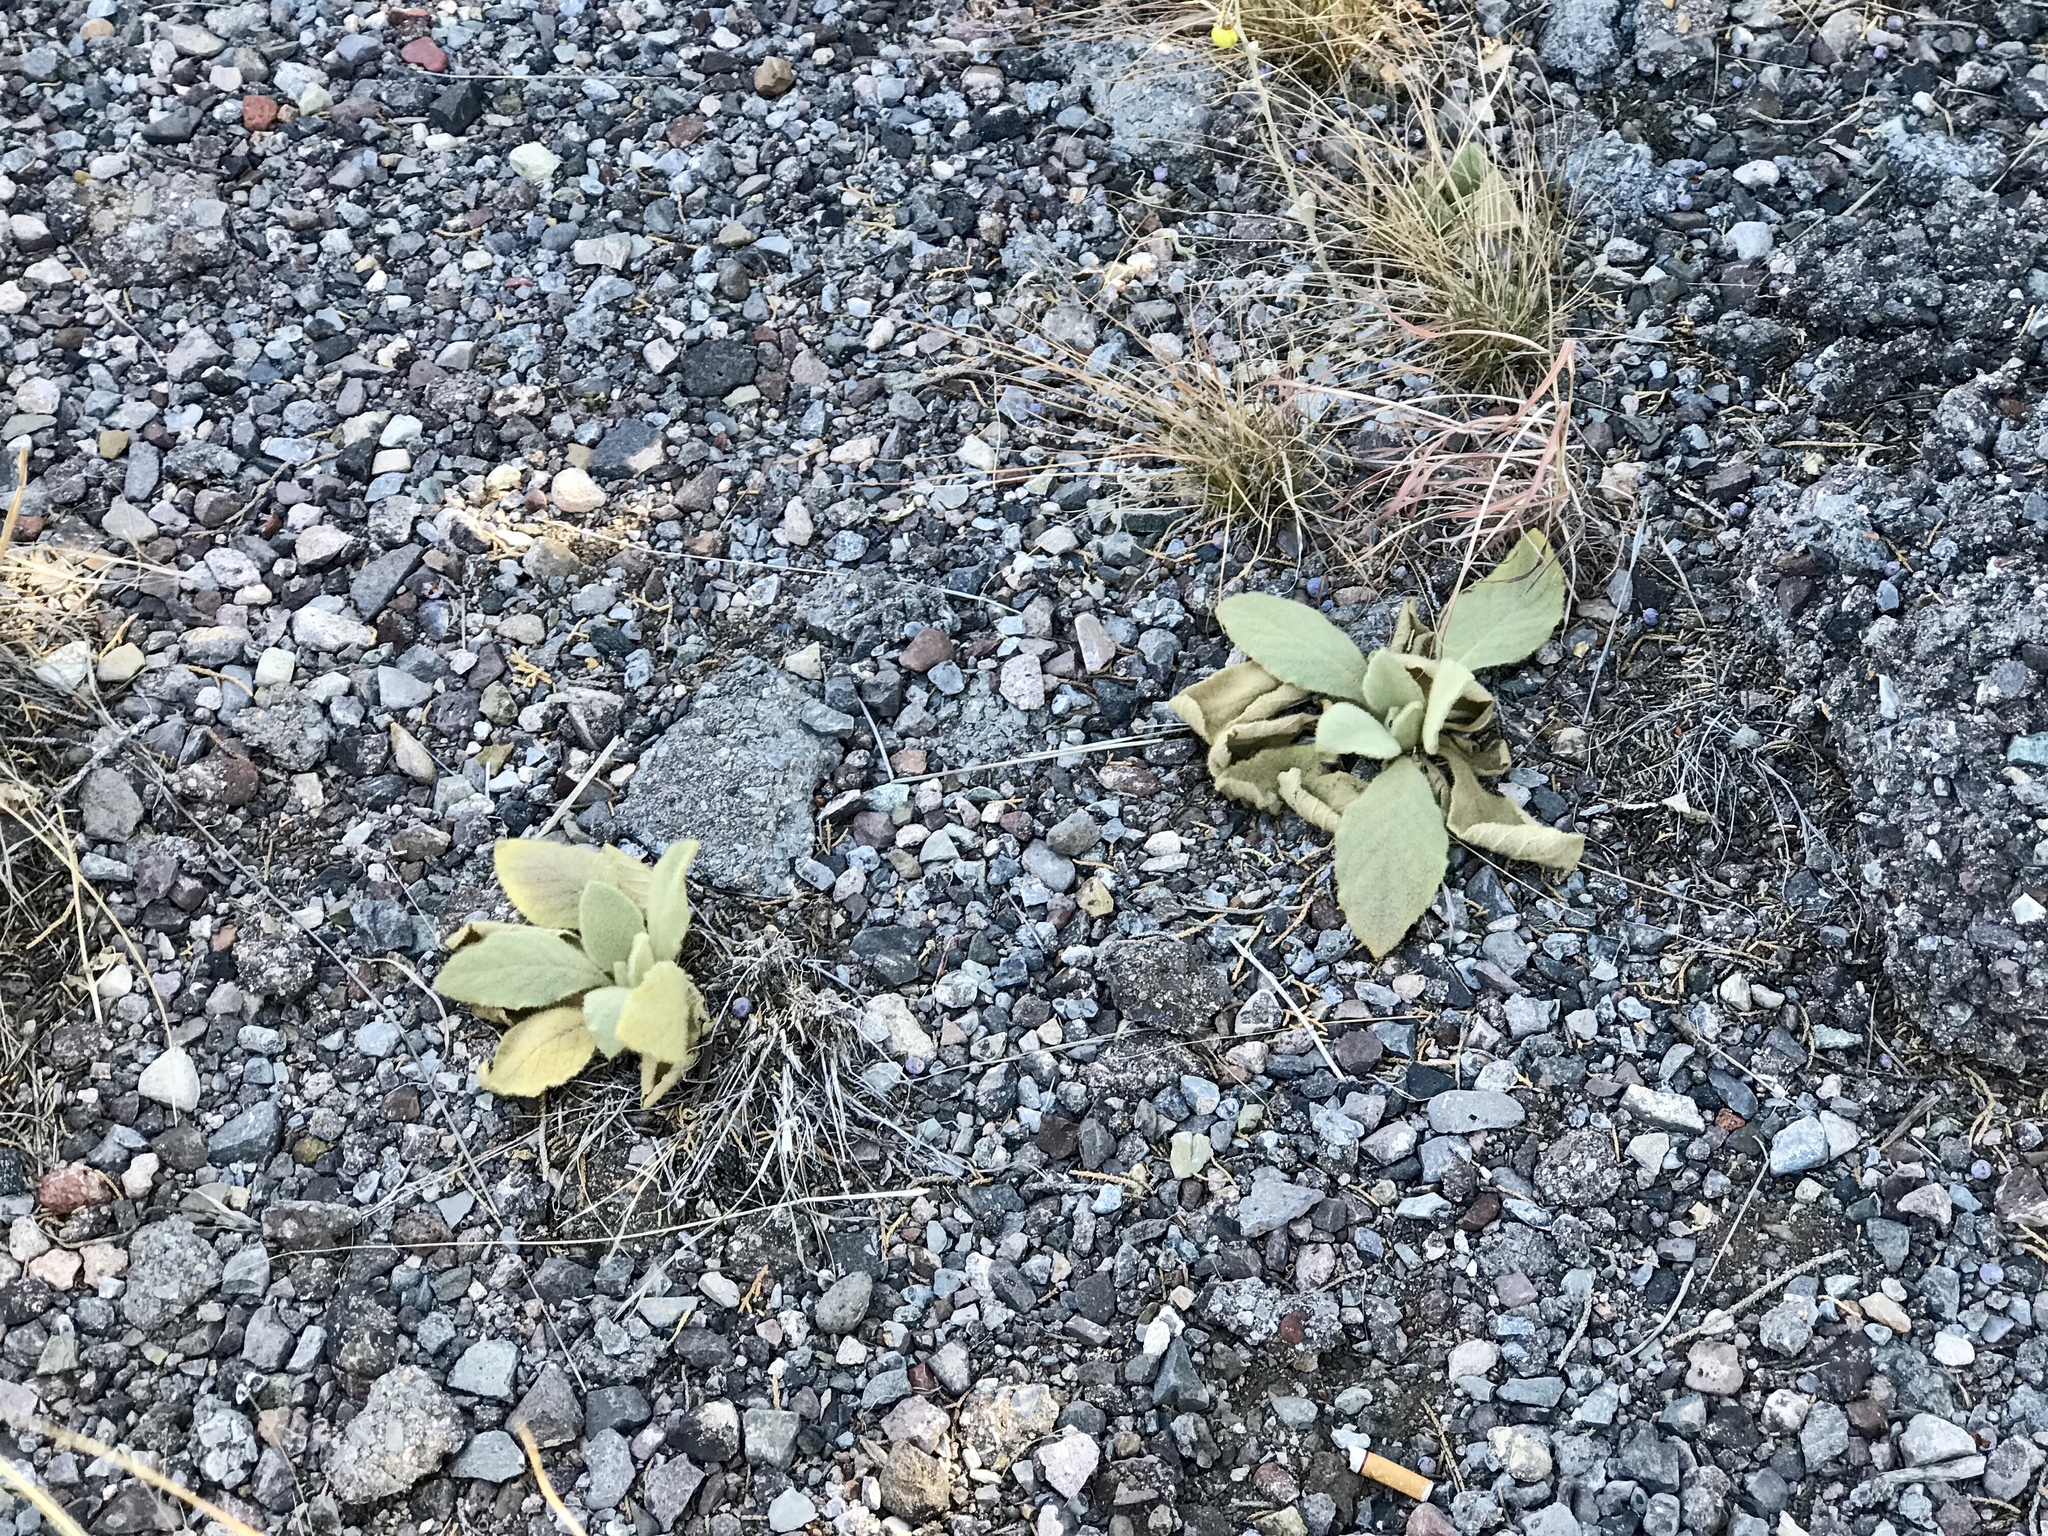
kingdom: Plantae
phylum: Tracheophyta
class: Magnoliopsida
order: Lamiales
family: Scrophulariaceae
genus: Verbascum
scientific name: Verbascum thapsus
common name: Common mullein
